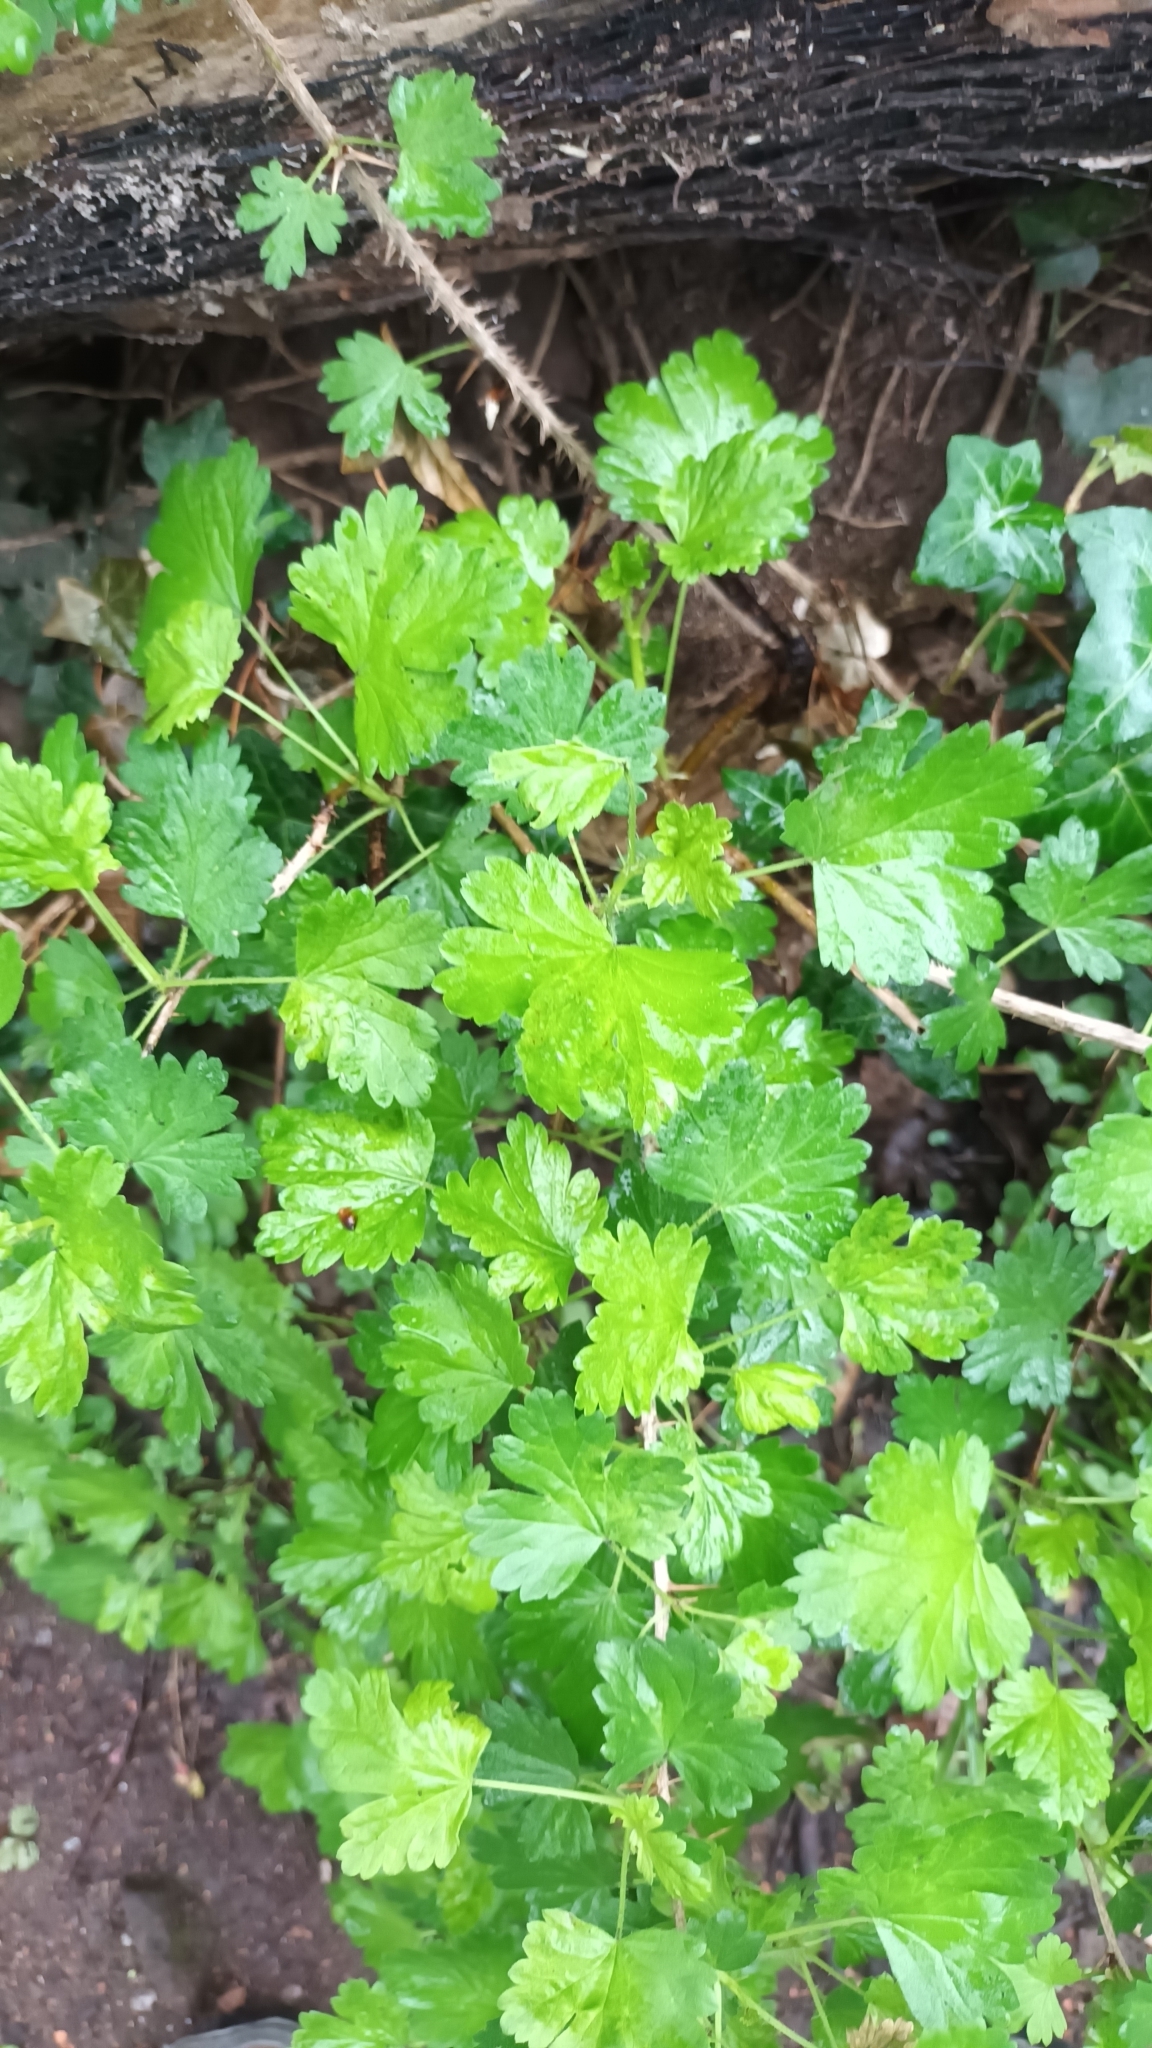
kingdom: Plantae
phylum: Tracheophyta
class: Magnoliopsida
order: Saxifragales
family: Grossulariaceae
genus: Ribes
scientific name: Ribes uva-crispa
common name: Gooseberry
